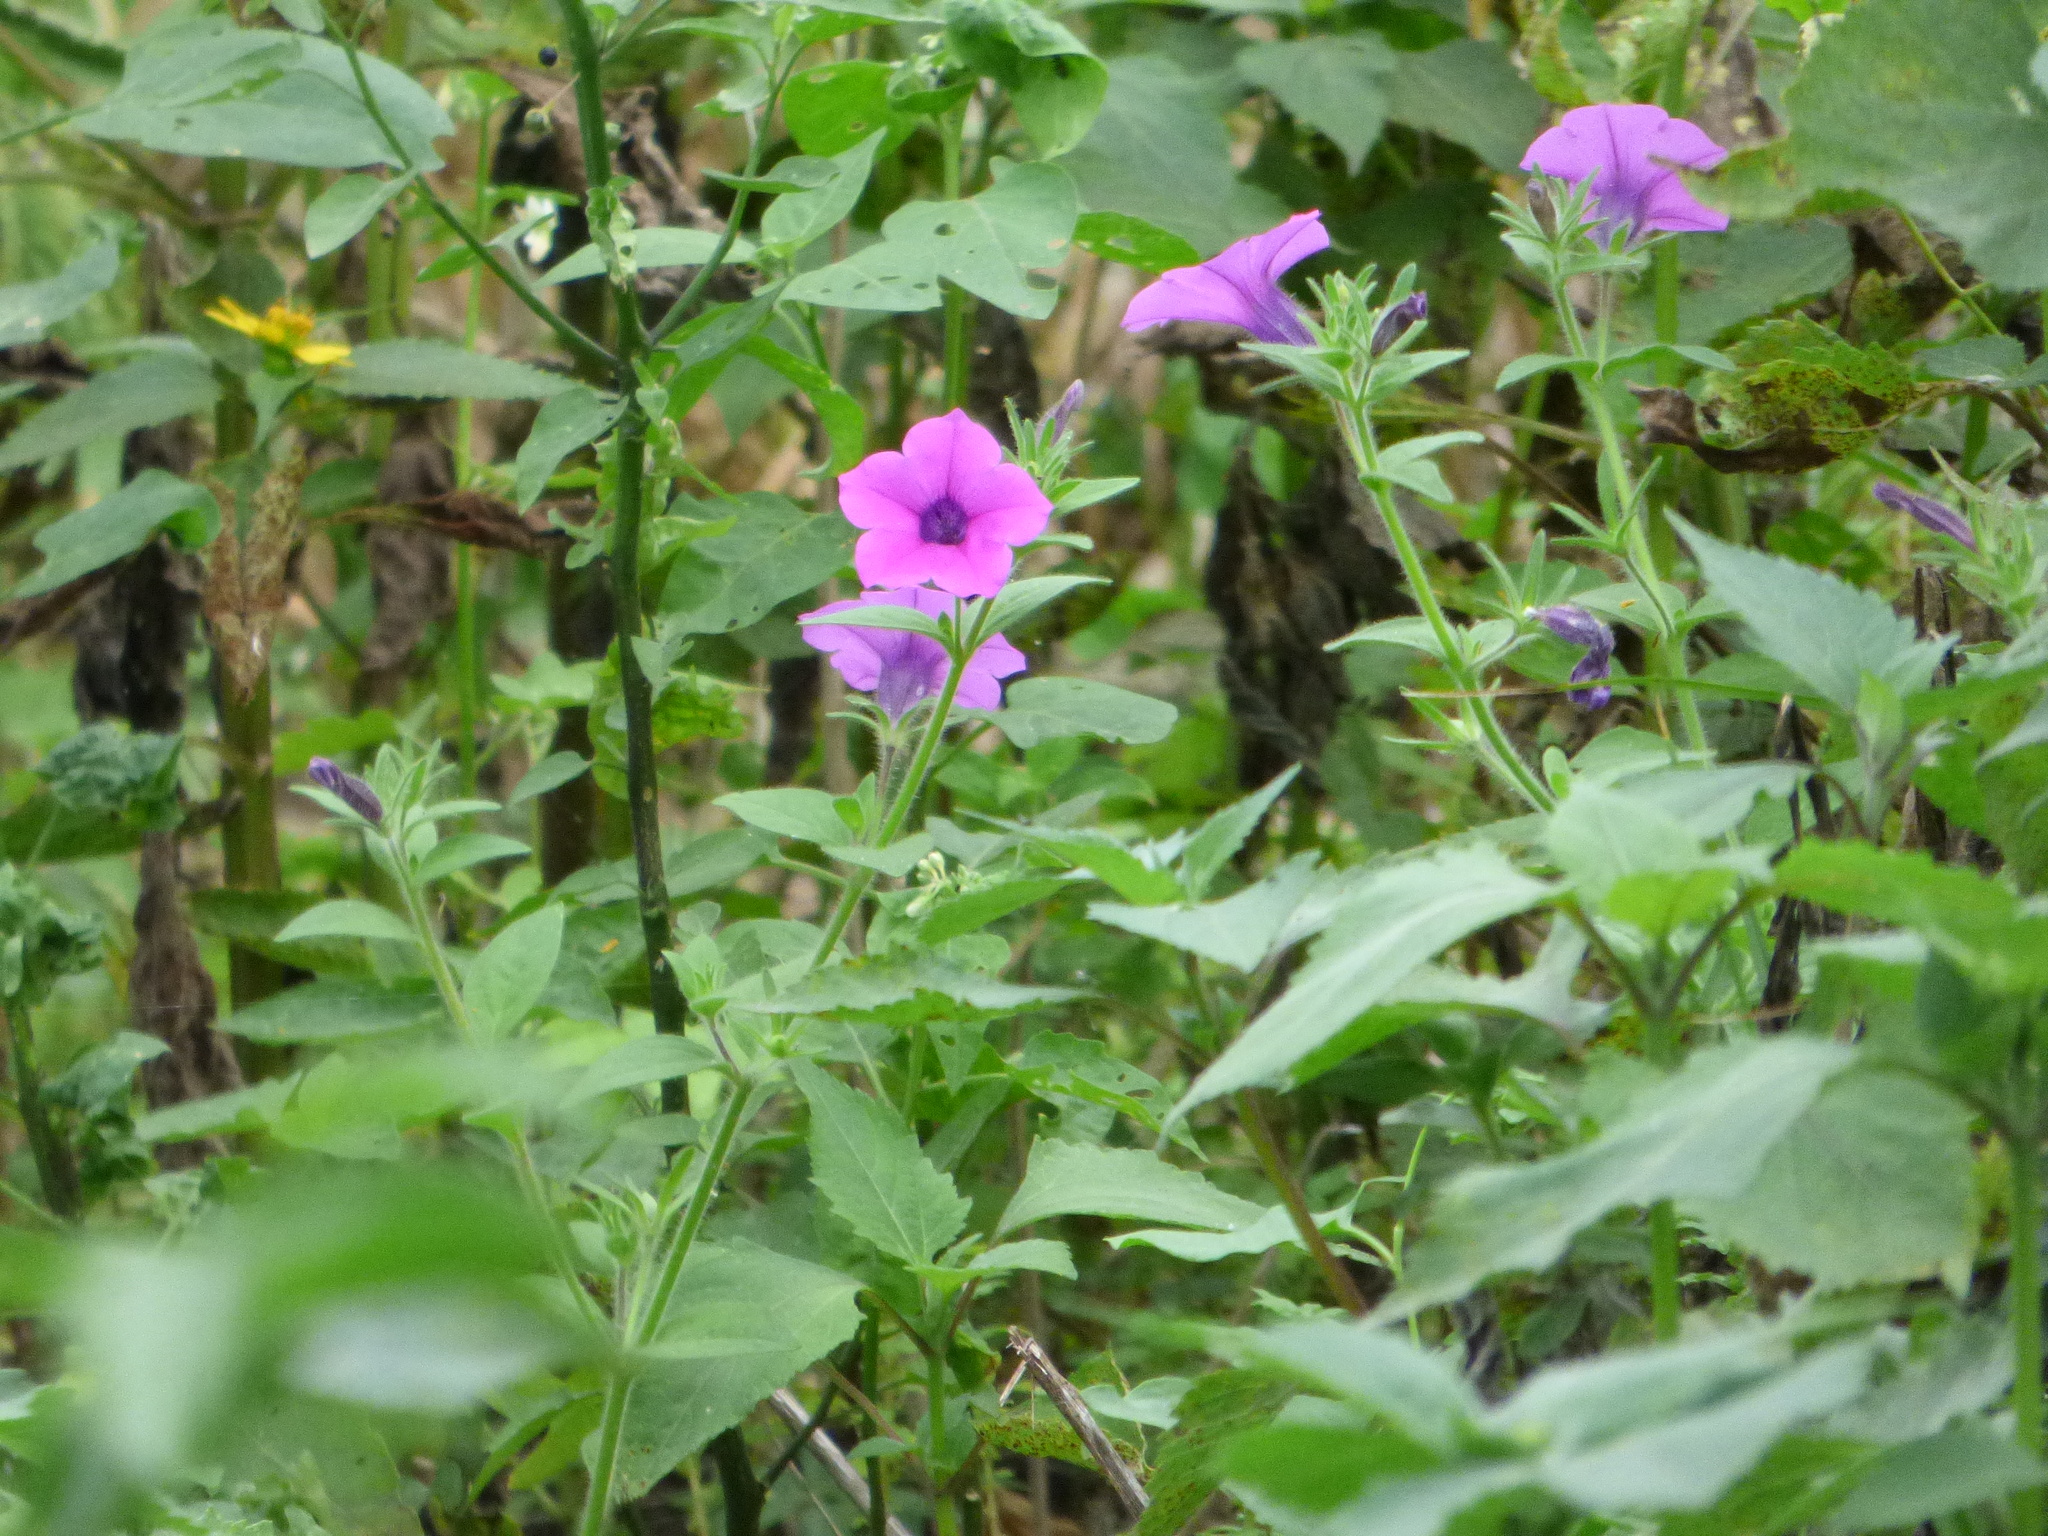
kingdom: Plantae
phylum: Tracheophyta
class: Magnoliopsida
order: Solanales
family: Solanaceae
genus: Petunia
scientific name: Petunia inflata
